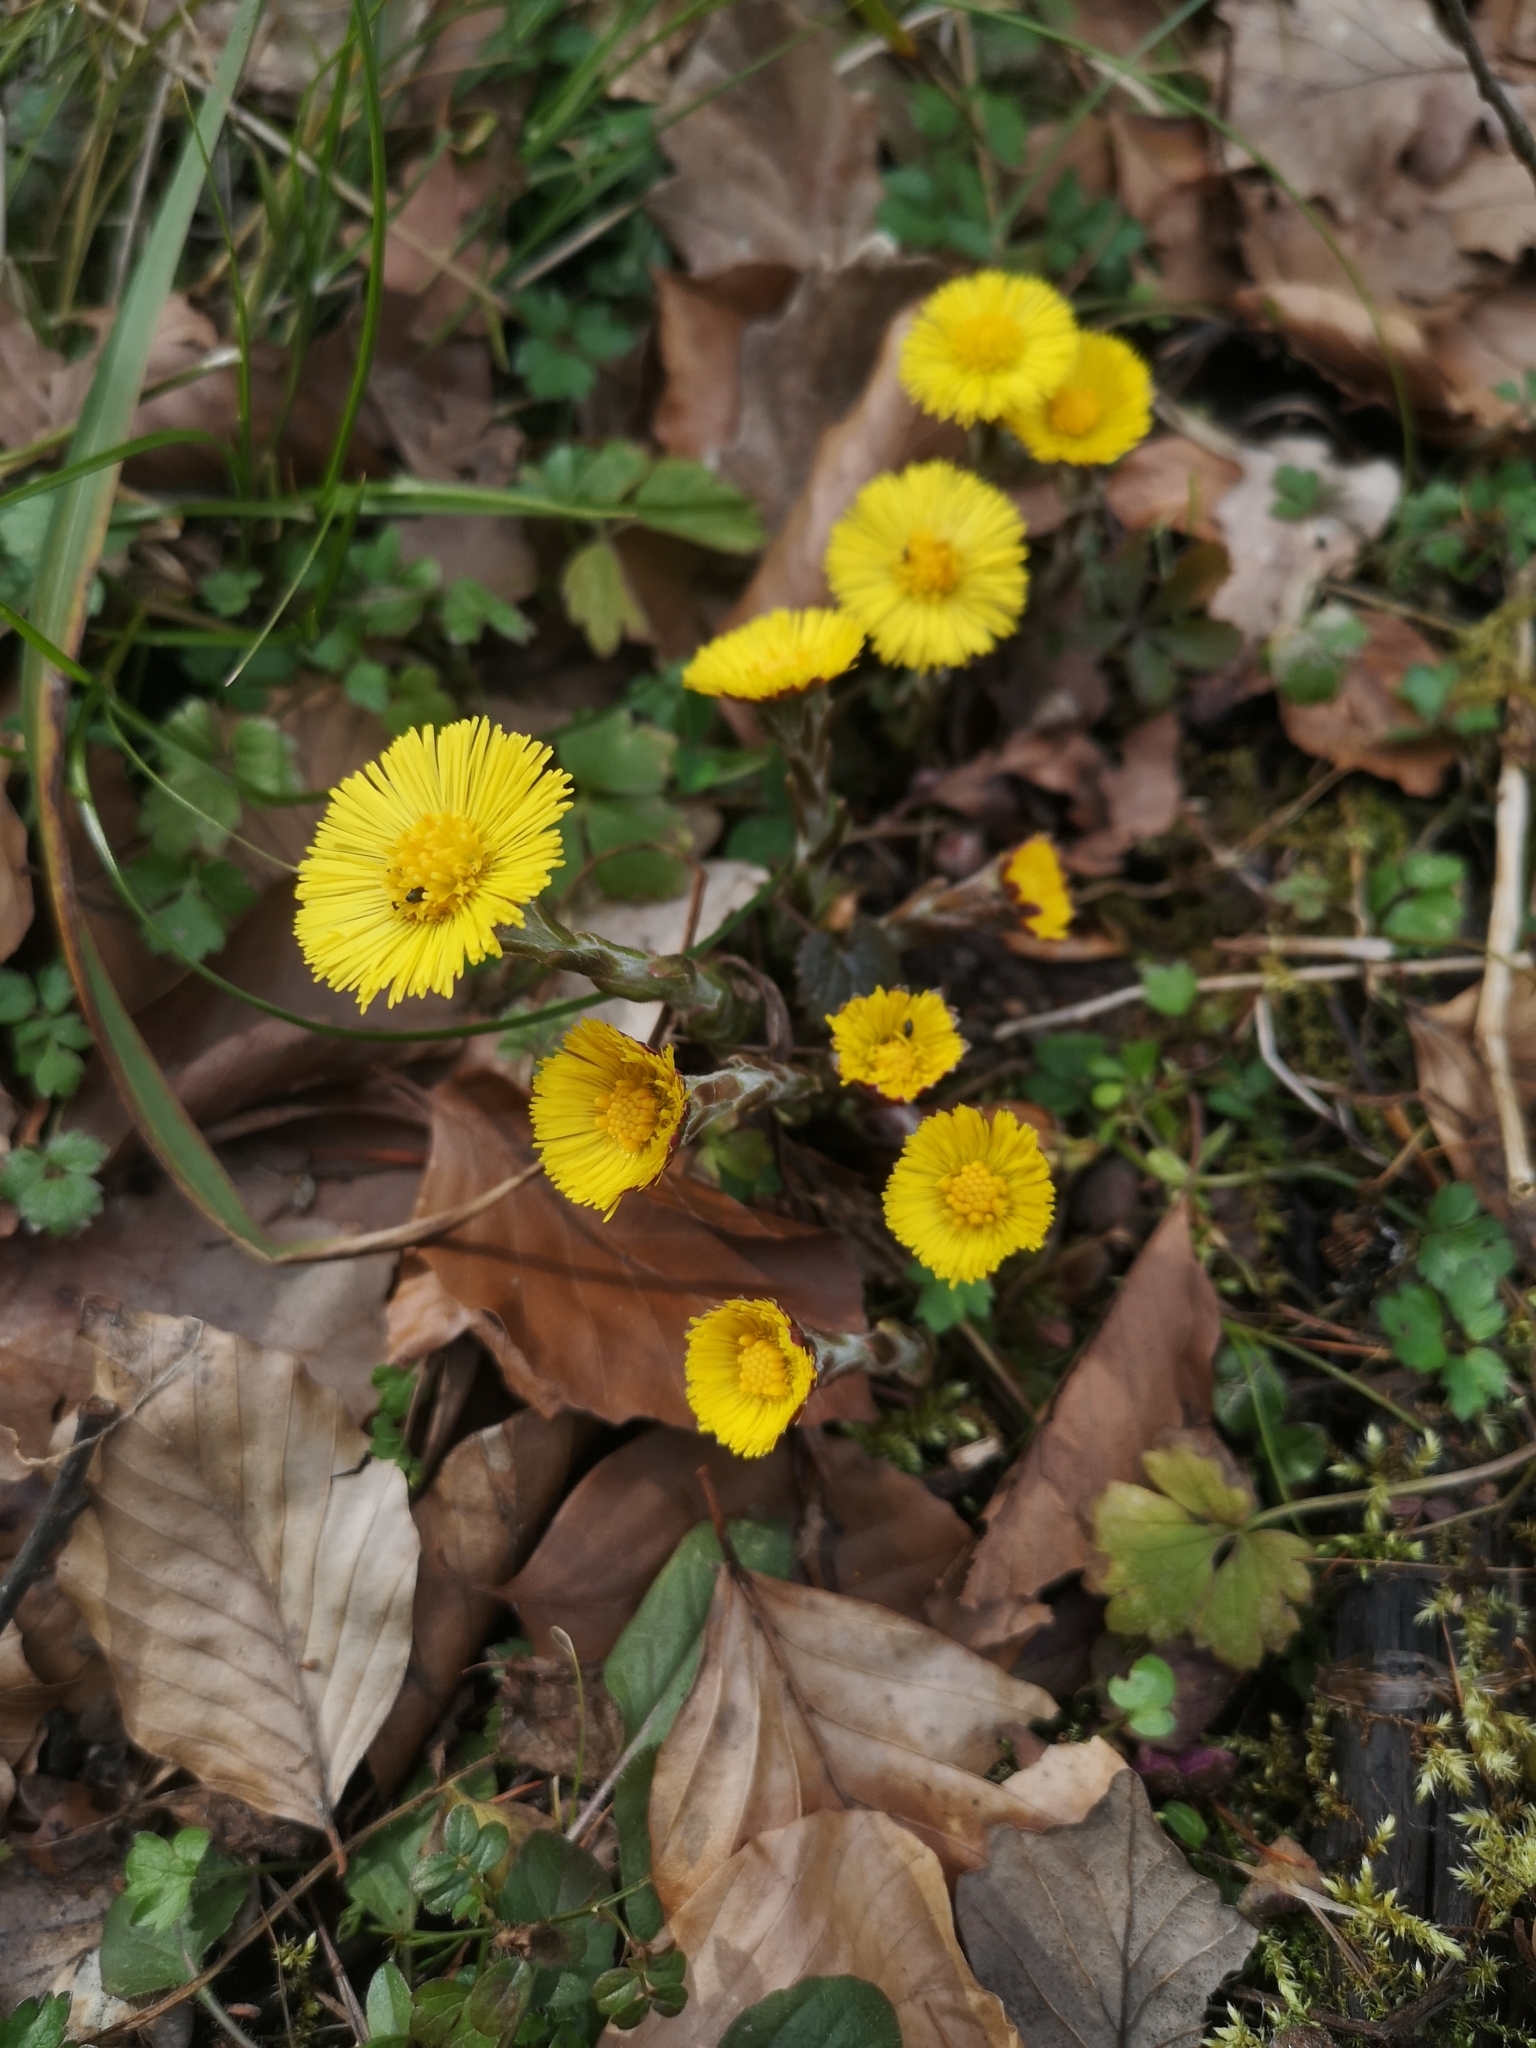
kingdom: Plantae
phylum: Tracheophyta
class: Magnoliopsida
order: Asterales
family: Asteraceae
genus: Tussilago
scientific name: Tussilago farfara
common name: Coltsfoot
